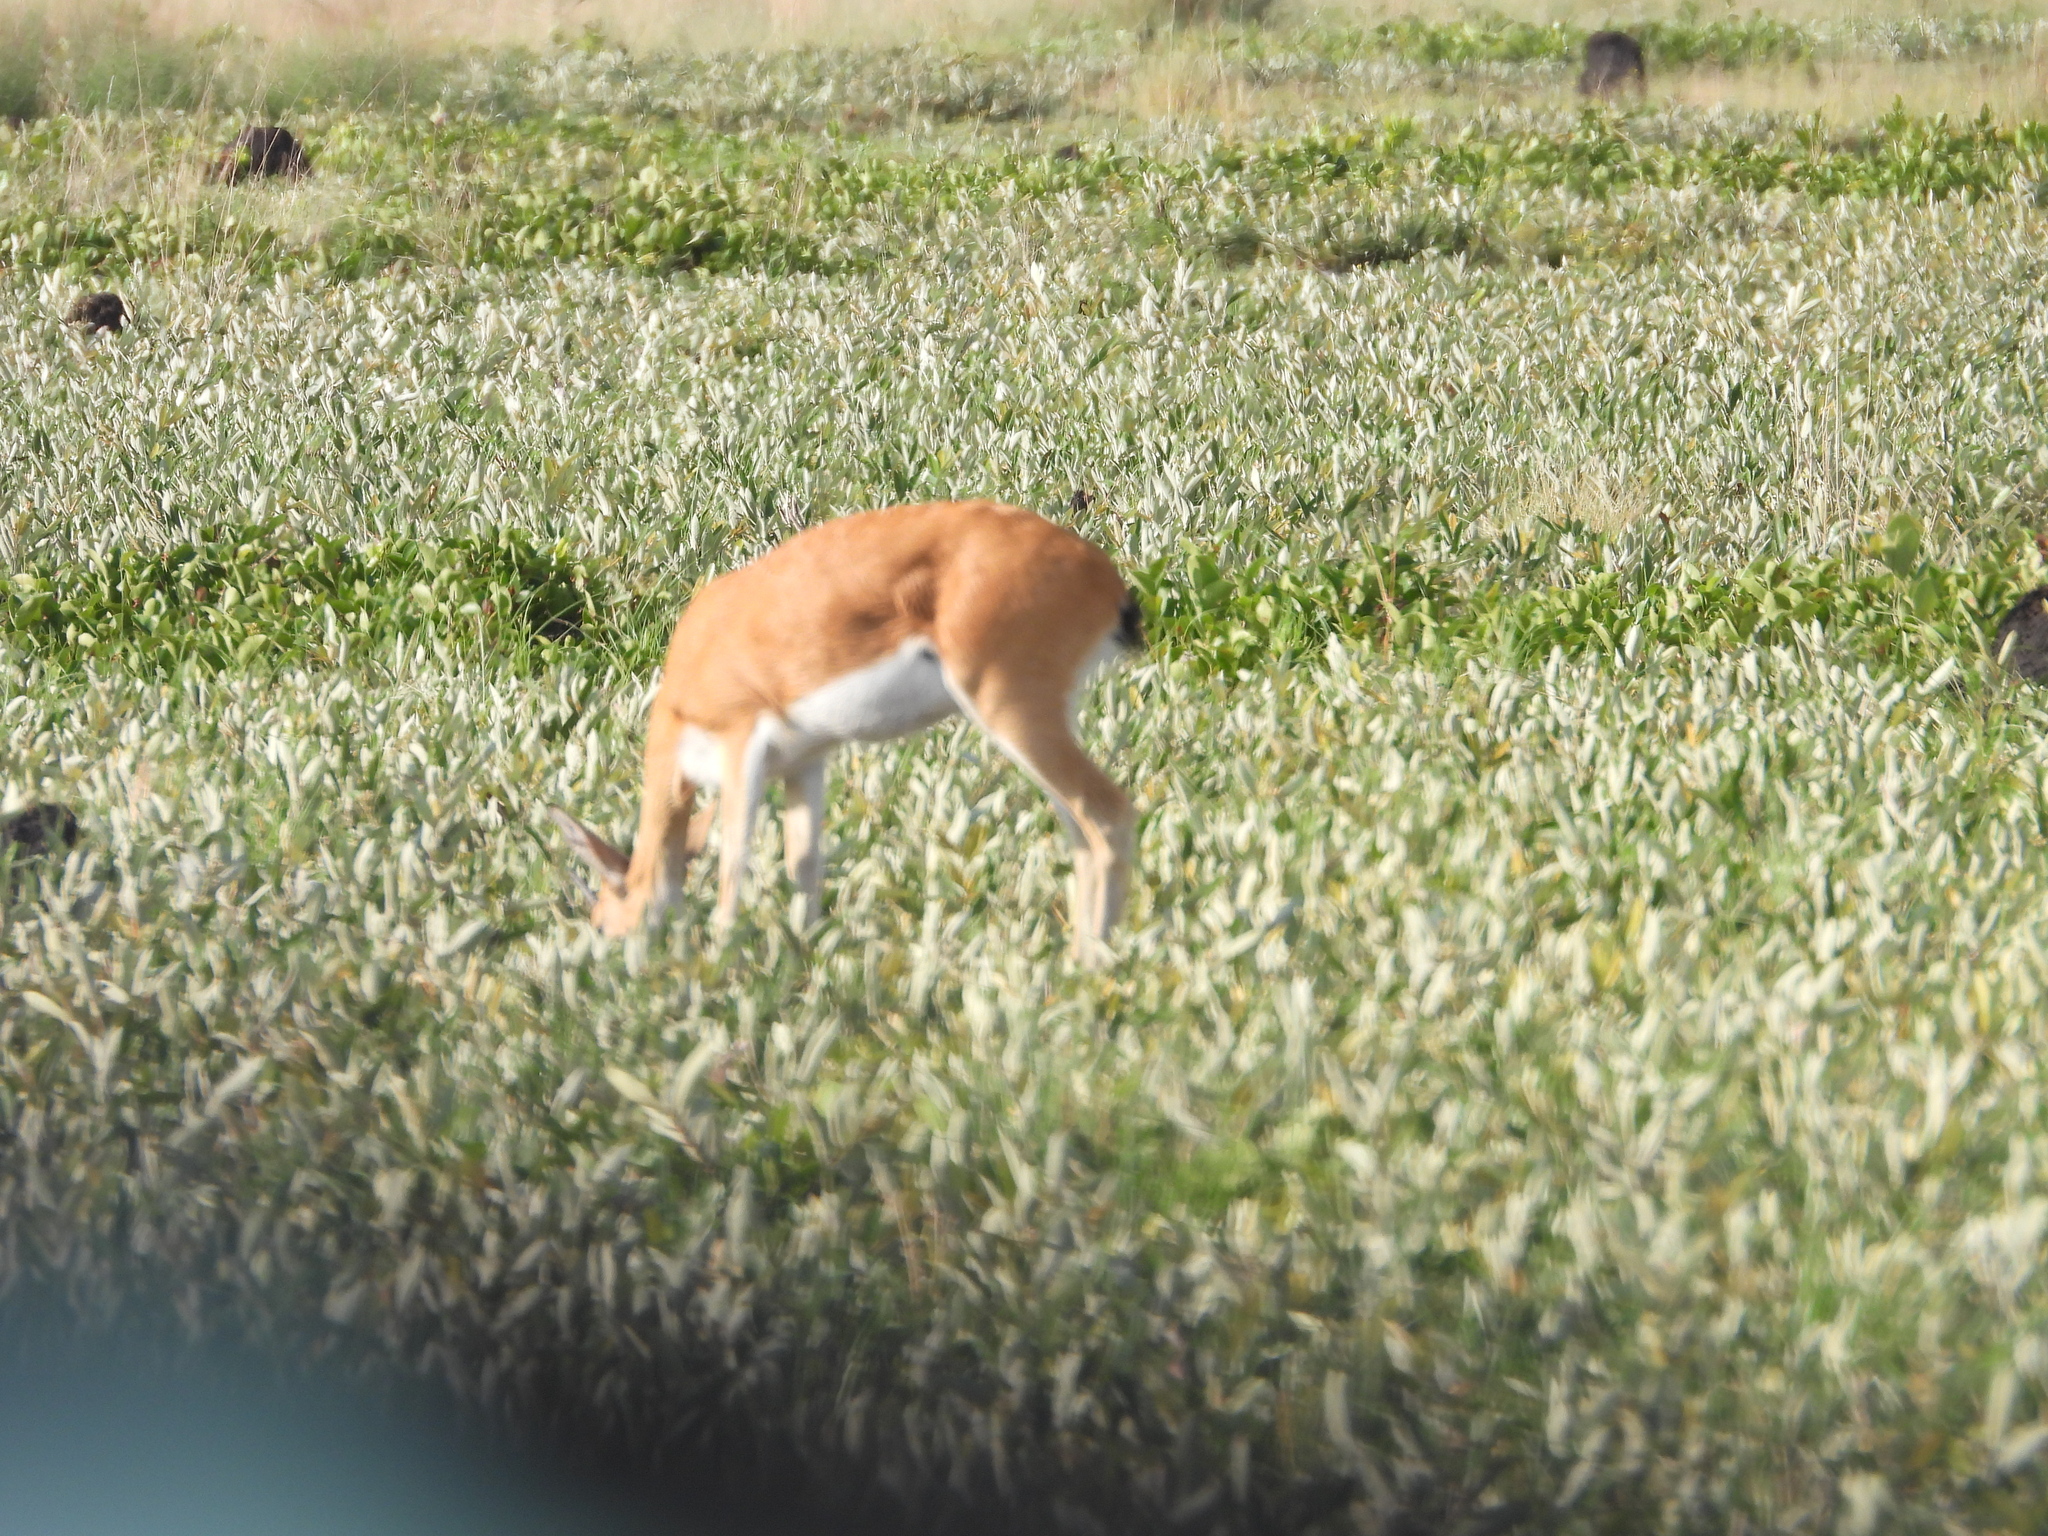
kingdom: Animalia
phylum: Chordata
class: Mammalia
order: Artiodactyla
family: Bovidae
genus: Ourebia
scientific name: Ourebia ourebi
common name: Oribi
